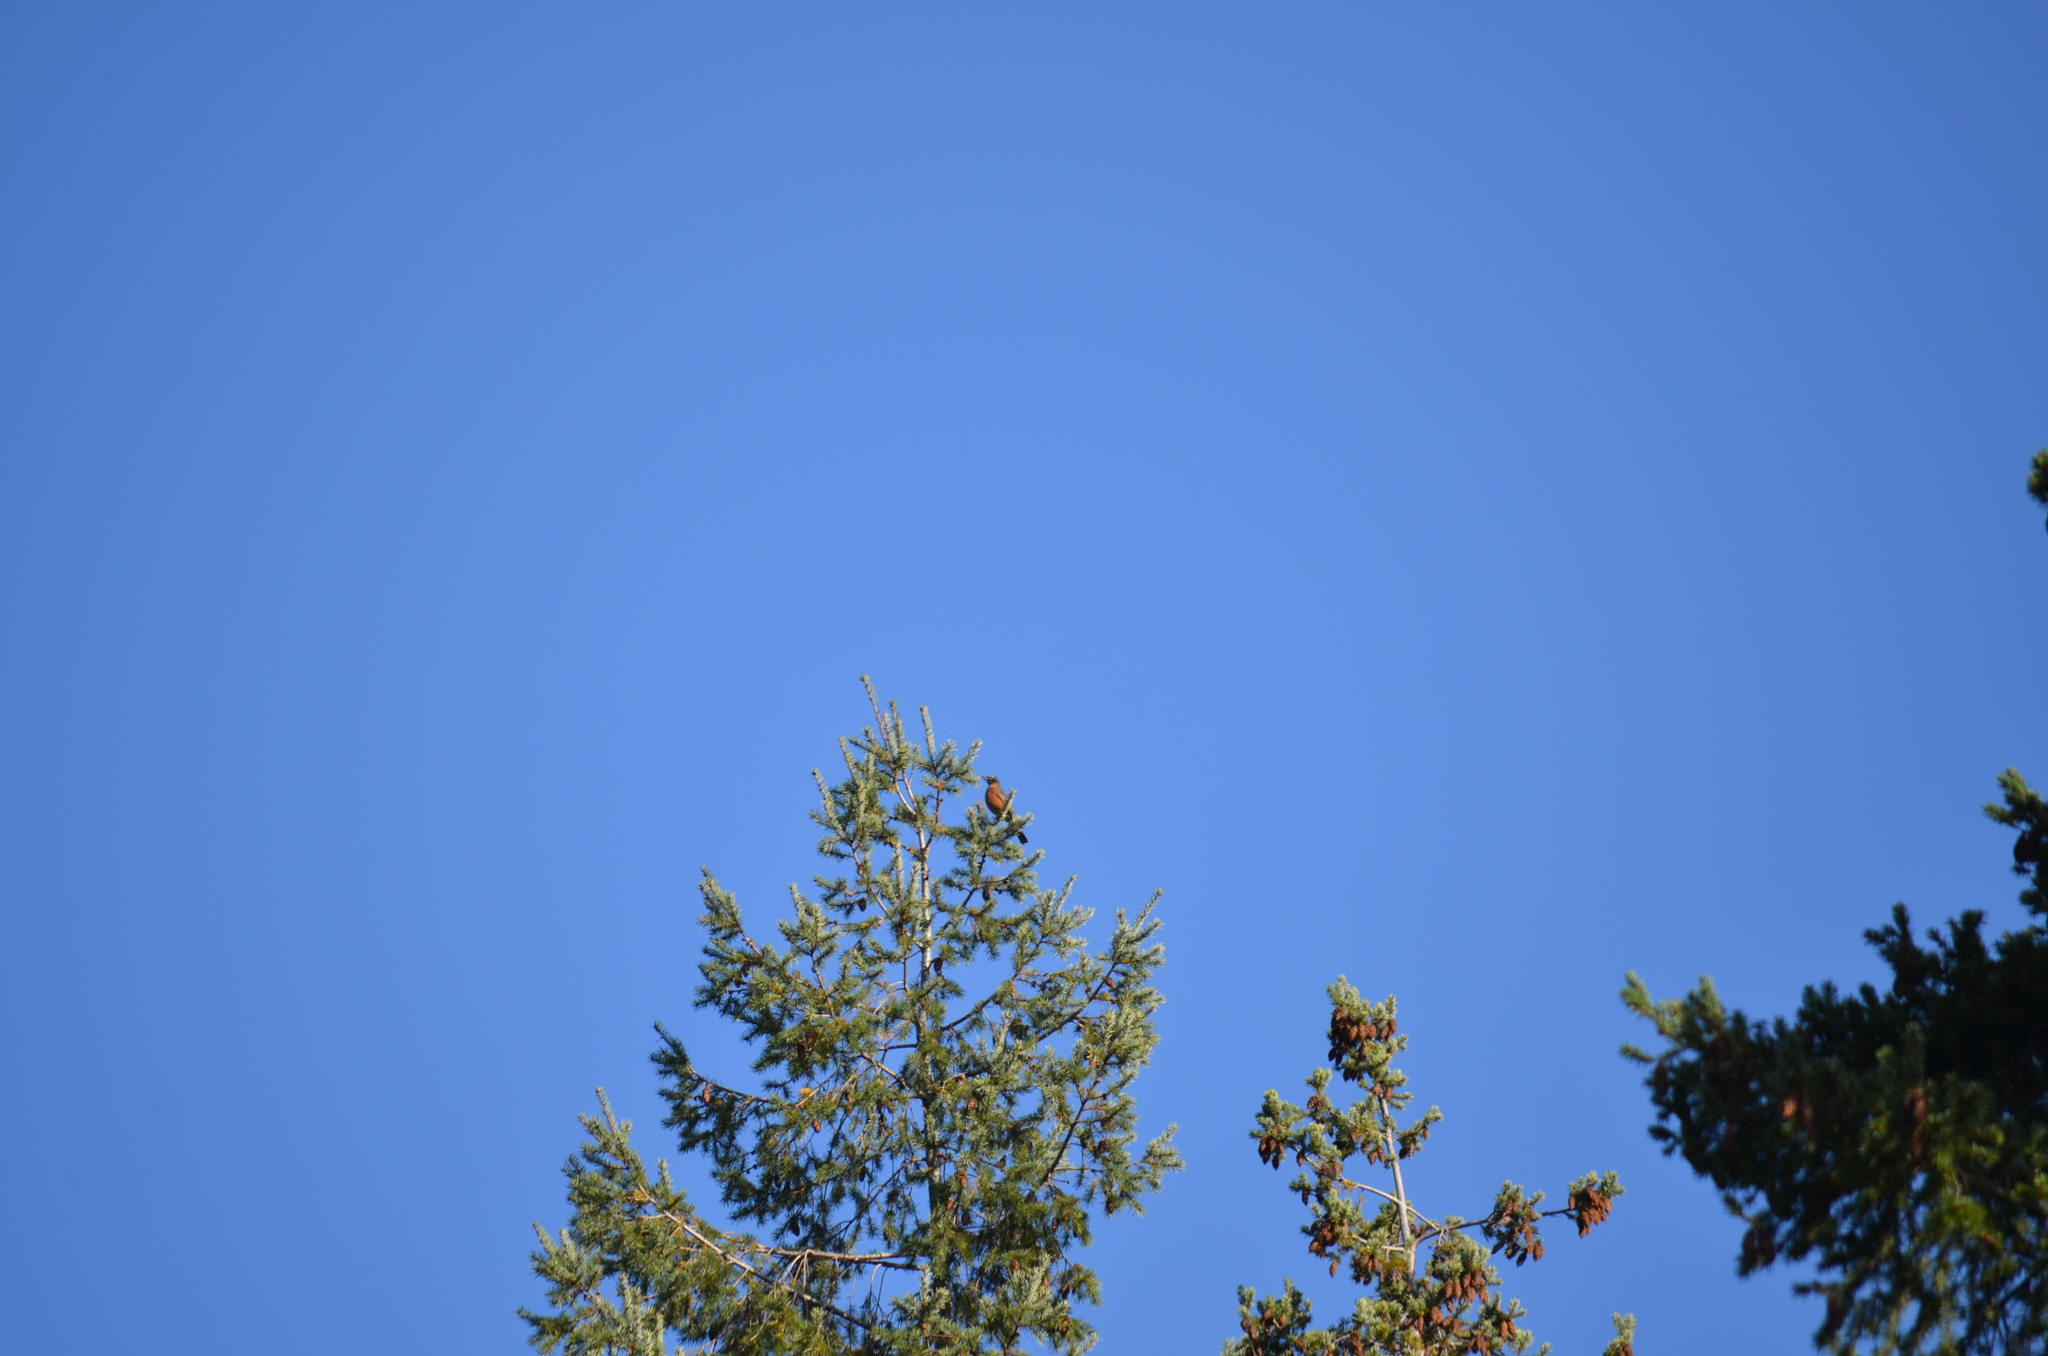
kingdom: Animalia
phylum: Chordata
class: Aves
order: Passeriformes
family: Turdidae
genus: Turdus
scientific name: Turdus migratorius
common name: American robin
